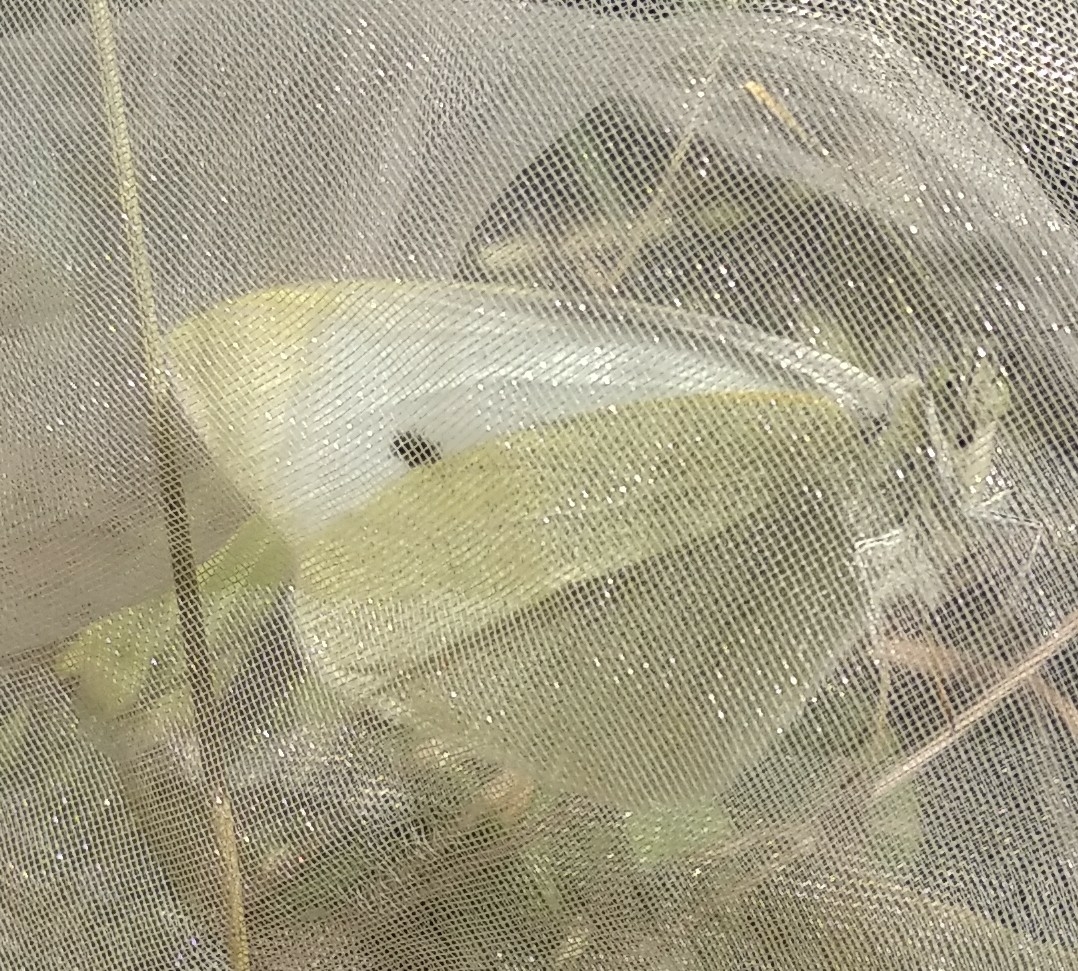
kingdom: Animalia
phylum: Arthropoda
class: Insecta
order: Lepidoptera
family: Pieridae
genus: Pieris
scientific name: Pieris rapae
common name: Small white
